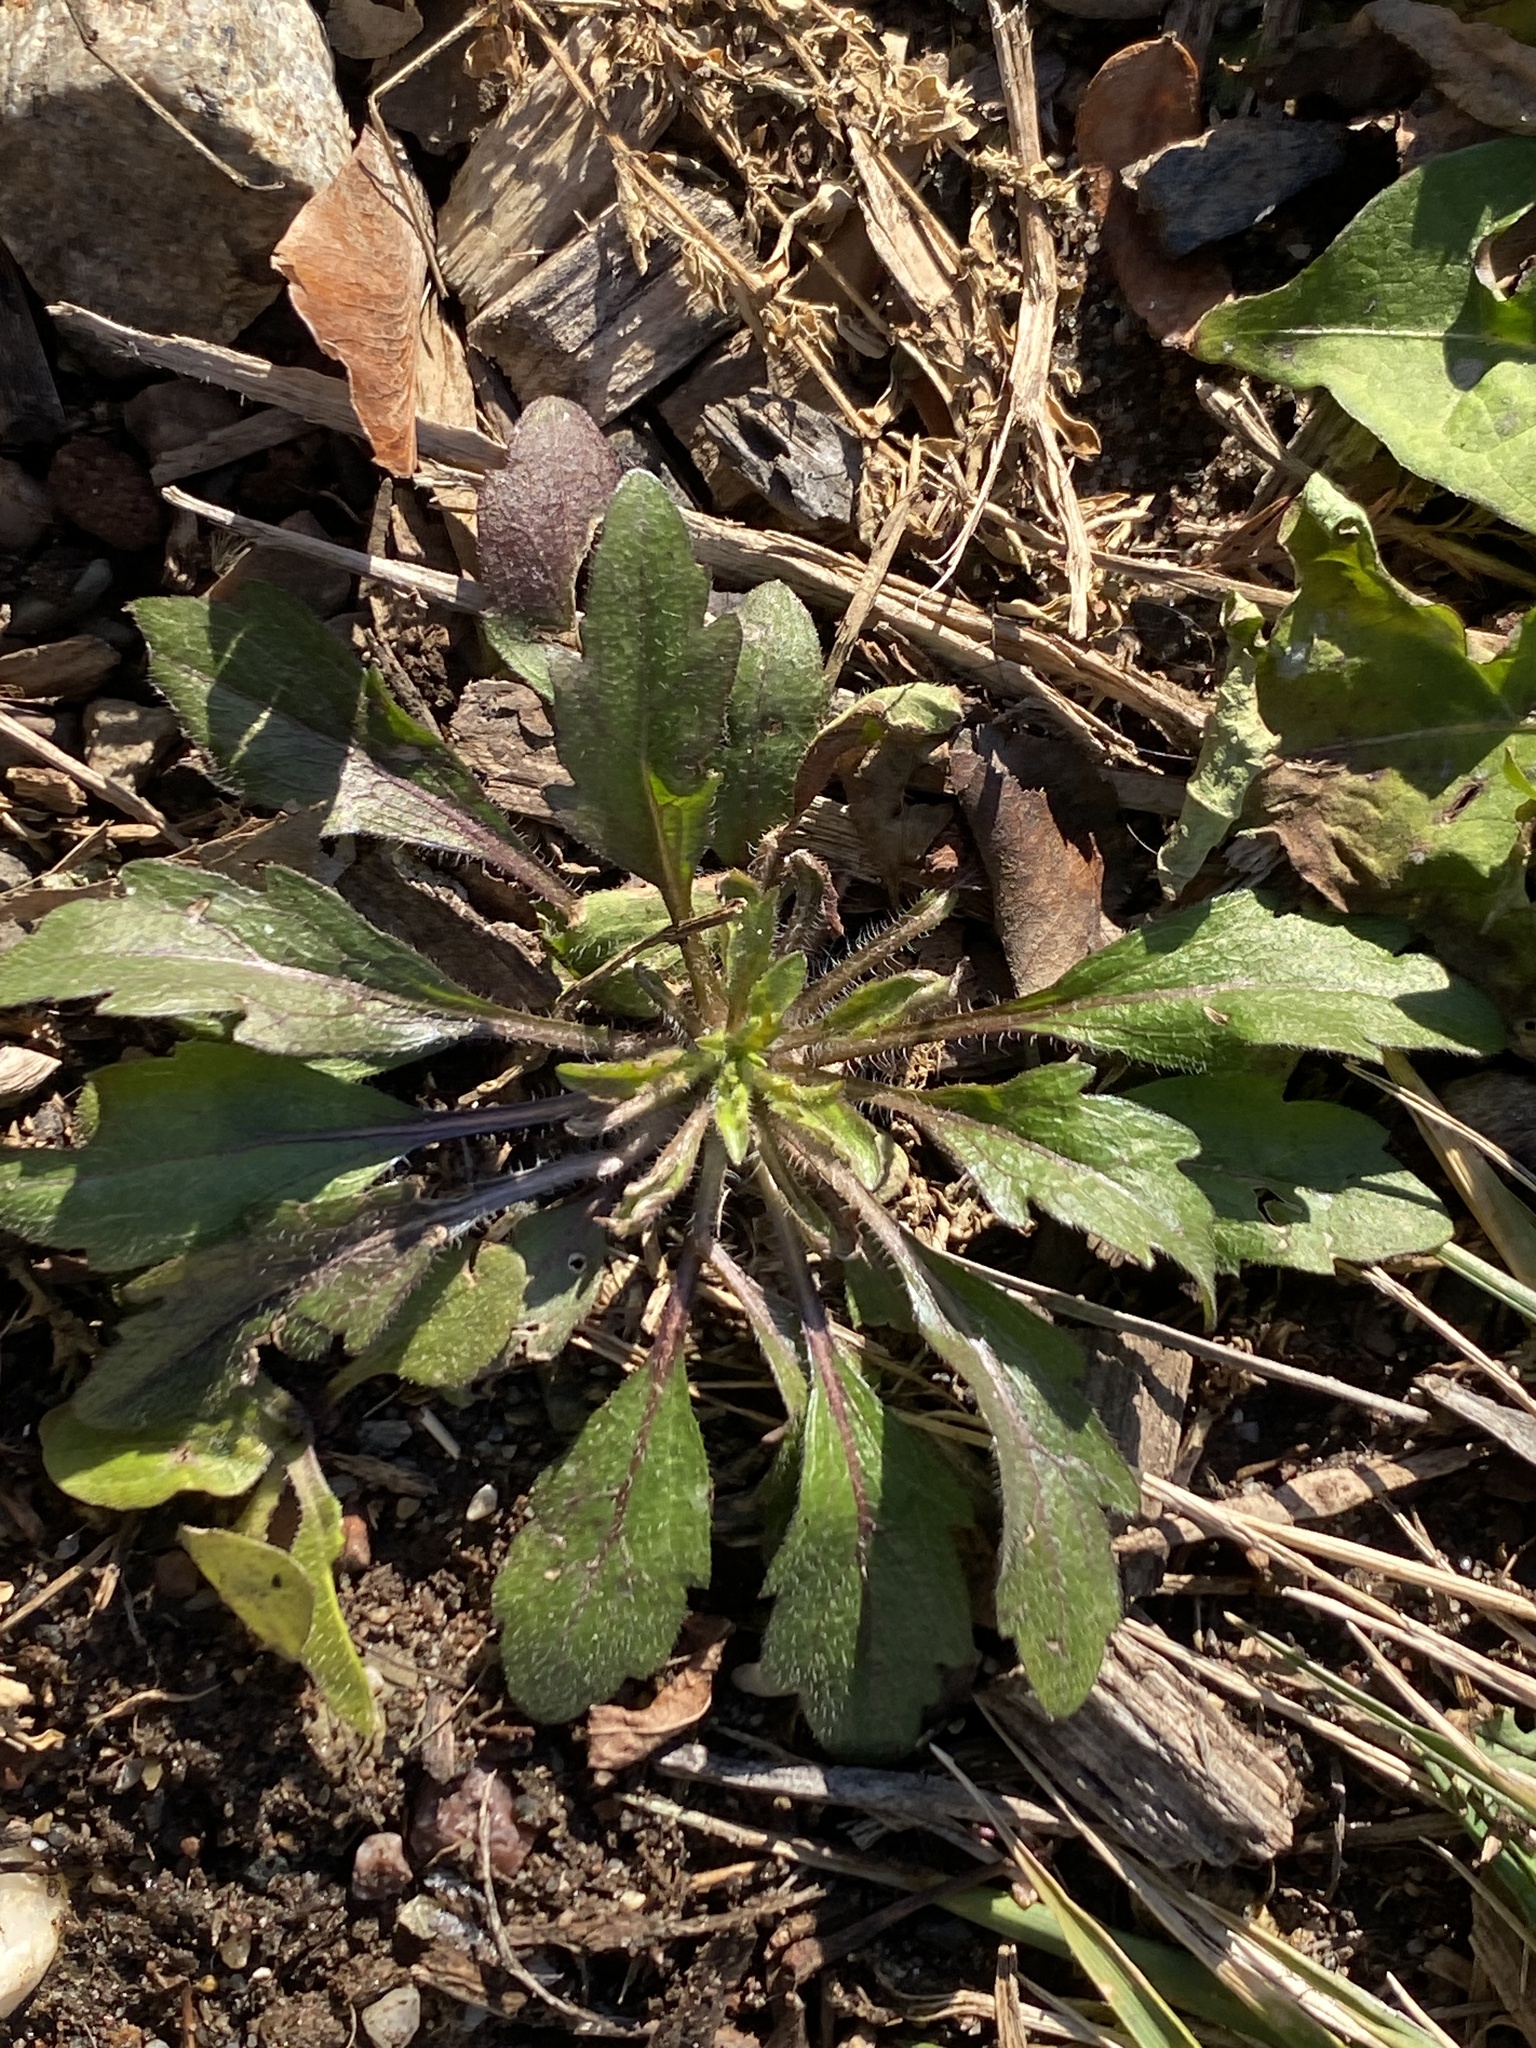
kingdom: Plantae
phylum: Tracheophyta
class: Magnoliopsida
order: Asterales
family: Asteraceae
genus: Erigeron
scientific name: Erigeron canadensis
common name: Canadian fleabane
